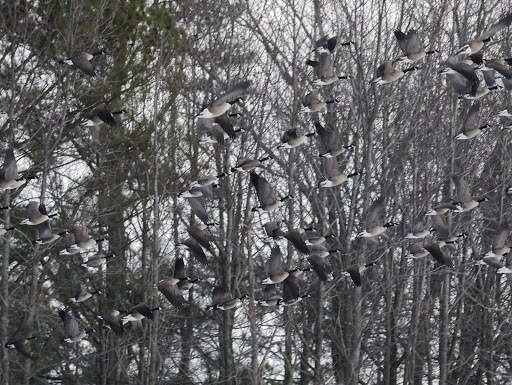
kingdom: Animalia
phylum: Chordata
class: Aves
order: Anseriformes
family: Anatidae
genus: Branta
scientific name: Branta canadensis
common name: Canada goose
